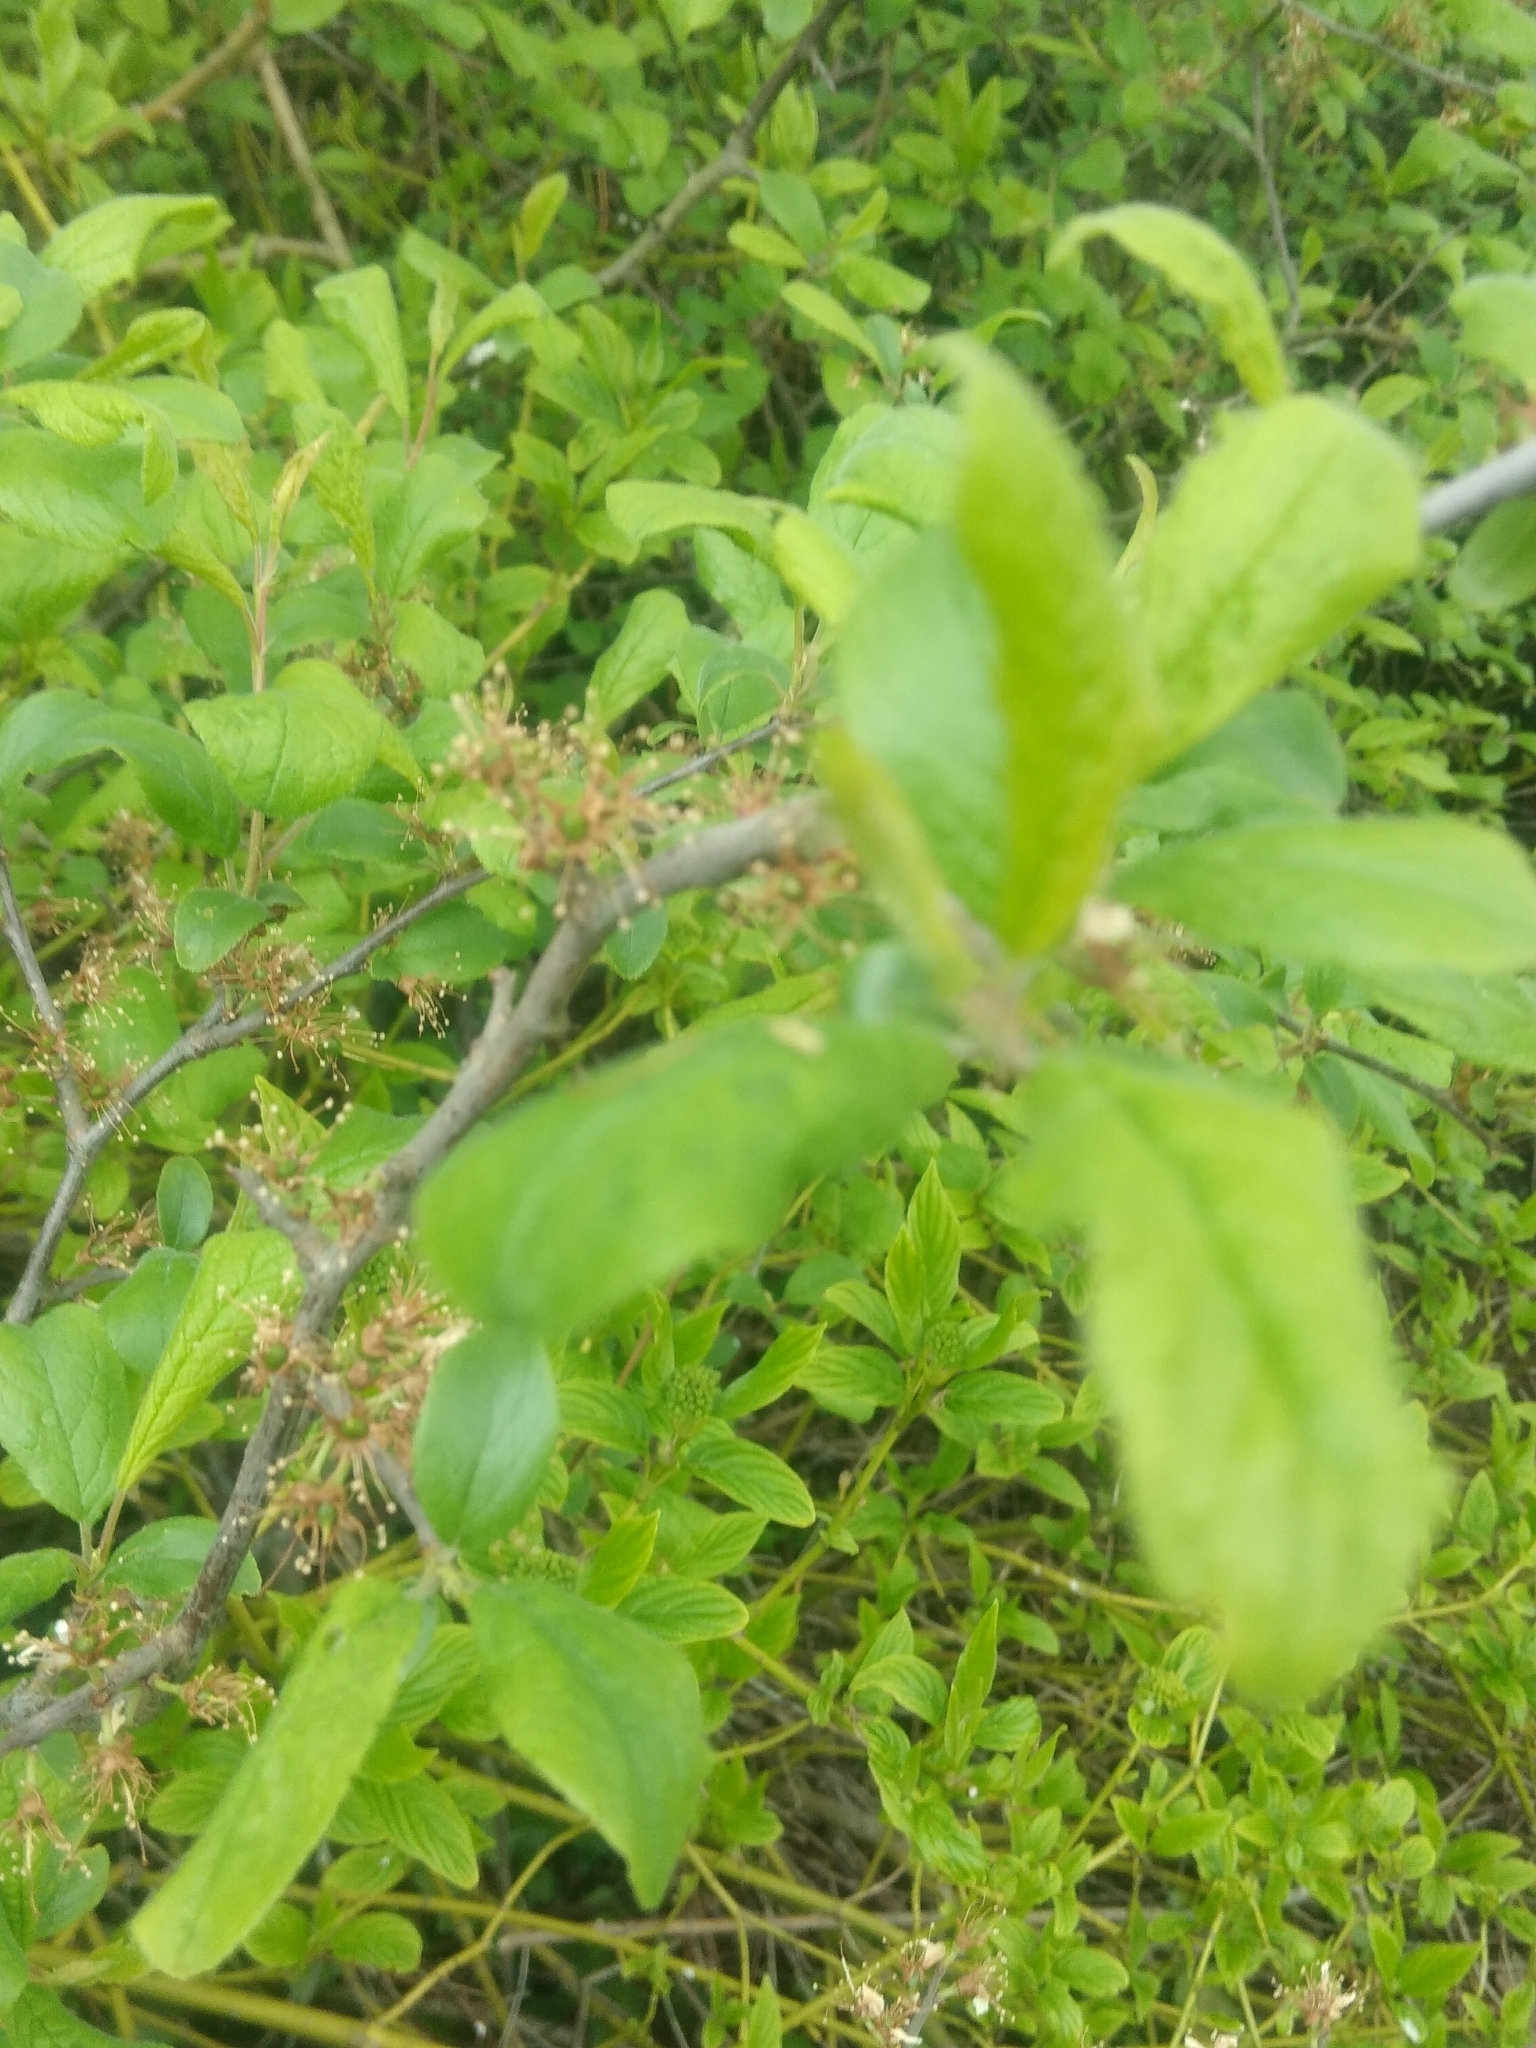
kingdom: Plantae
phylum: Tracheophyta
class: Magnoliopsida
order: Rosales
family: Rosaceae
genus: Prunus
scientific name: Prunus spinosa
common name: Blackthorn
